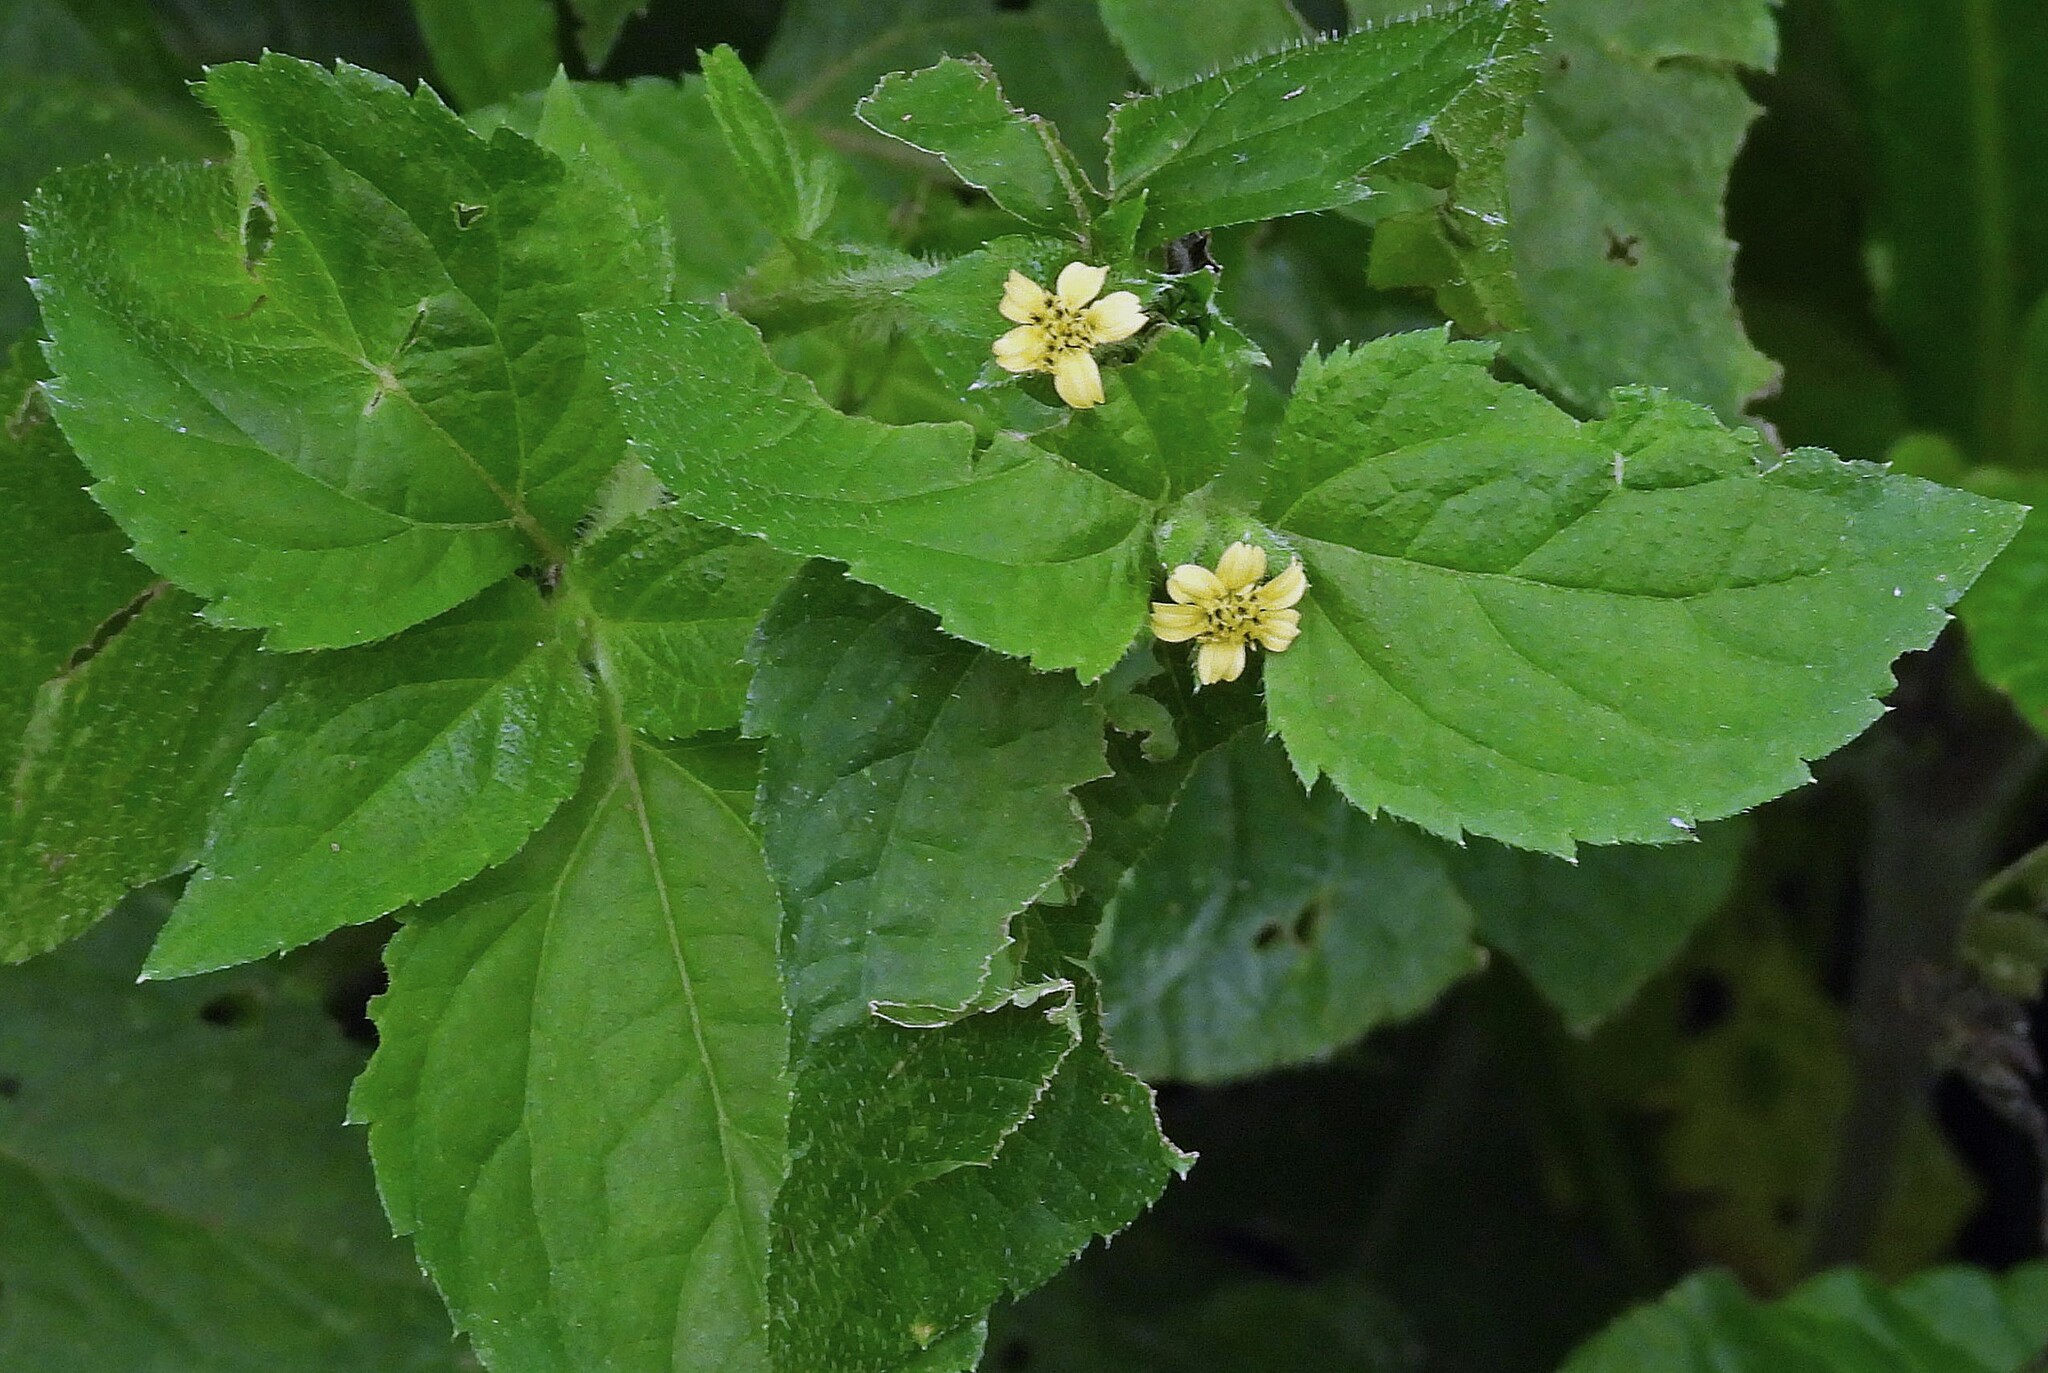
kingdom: Plantae
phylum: Tracheophyta
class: Magnoliopsida
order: Asterales
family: Asteraceae
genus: Calyptocarpus
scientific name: Calyptocarpus brasiliensis
